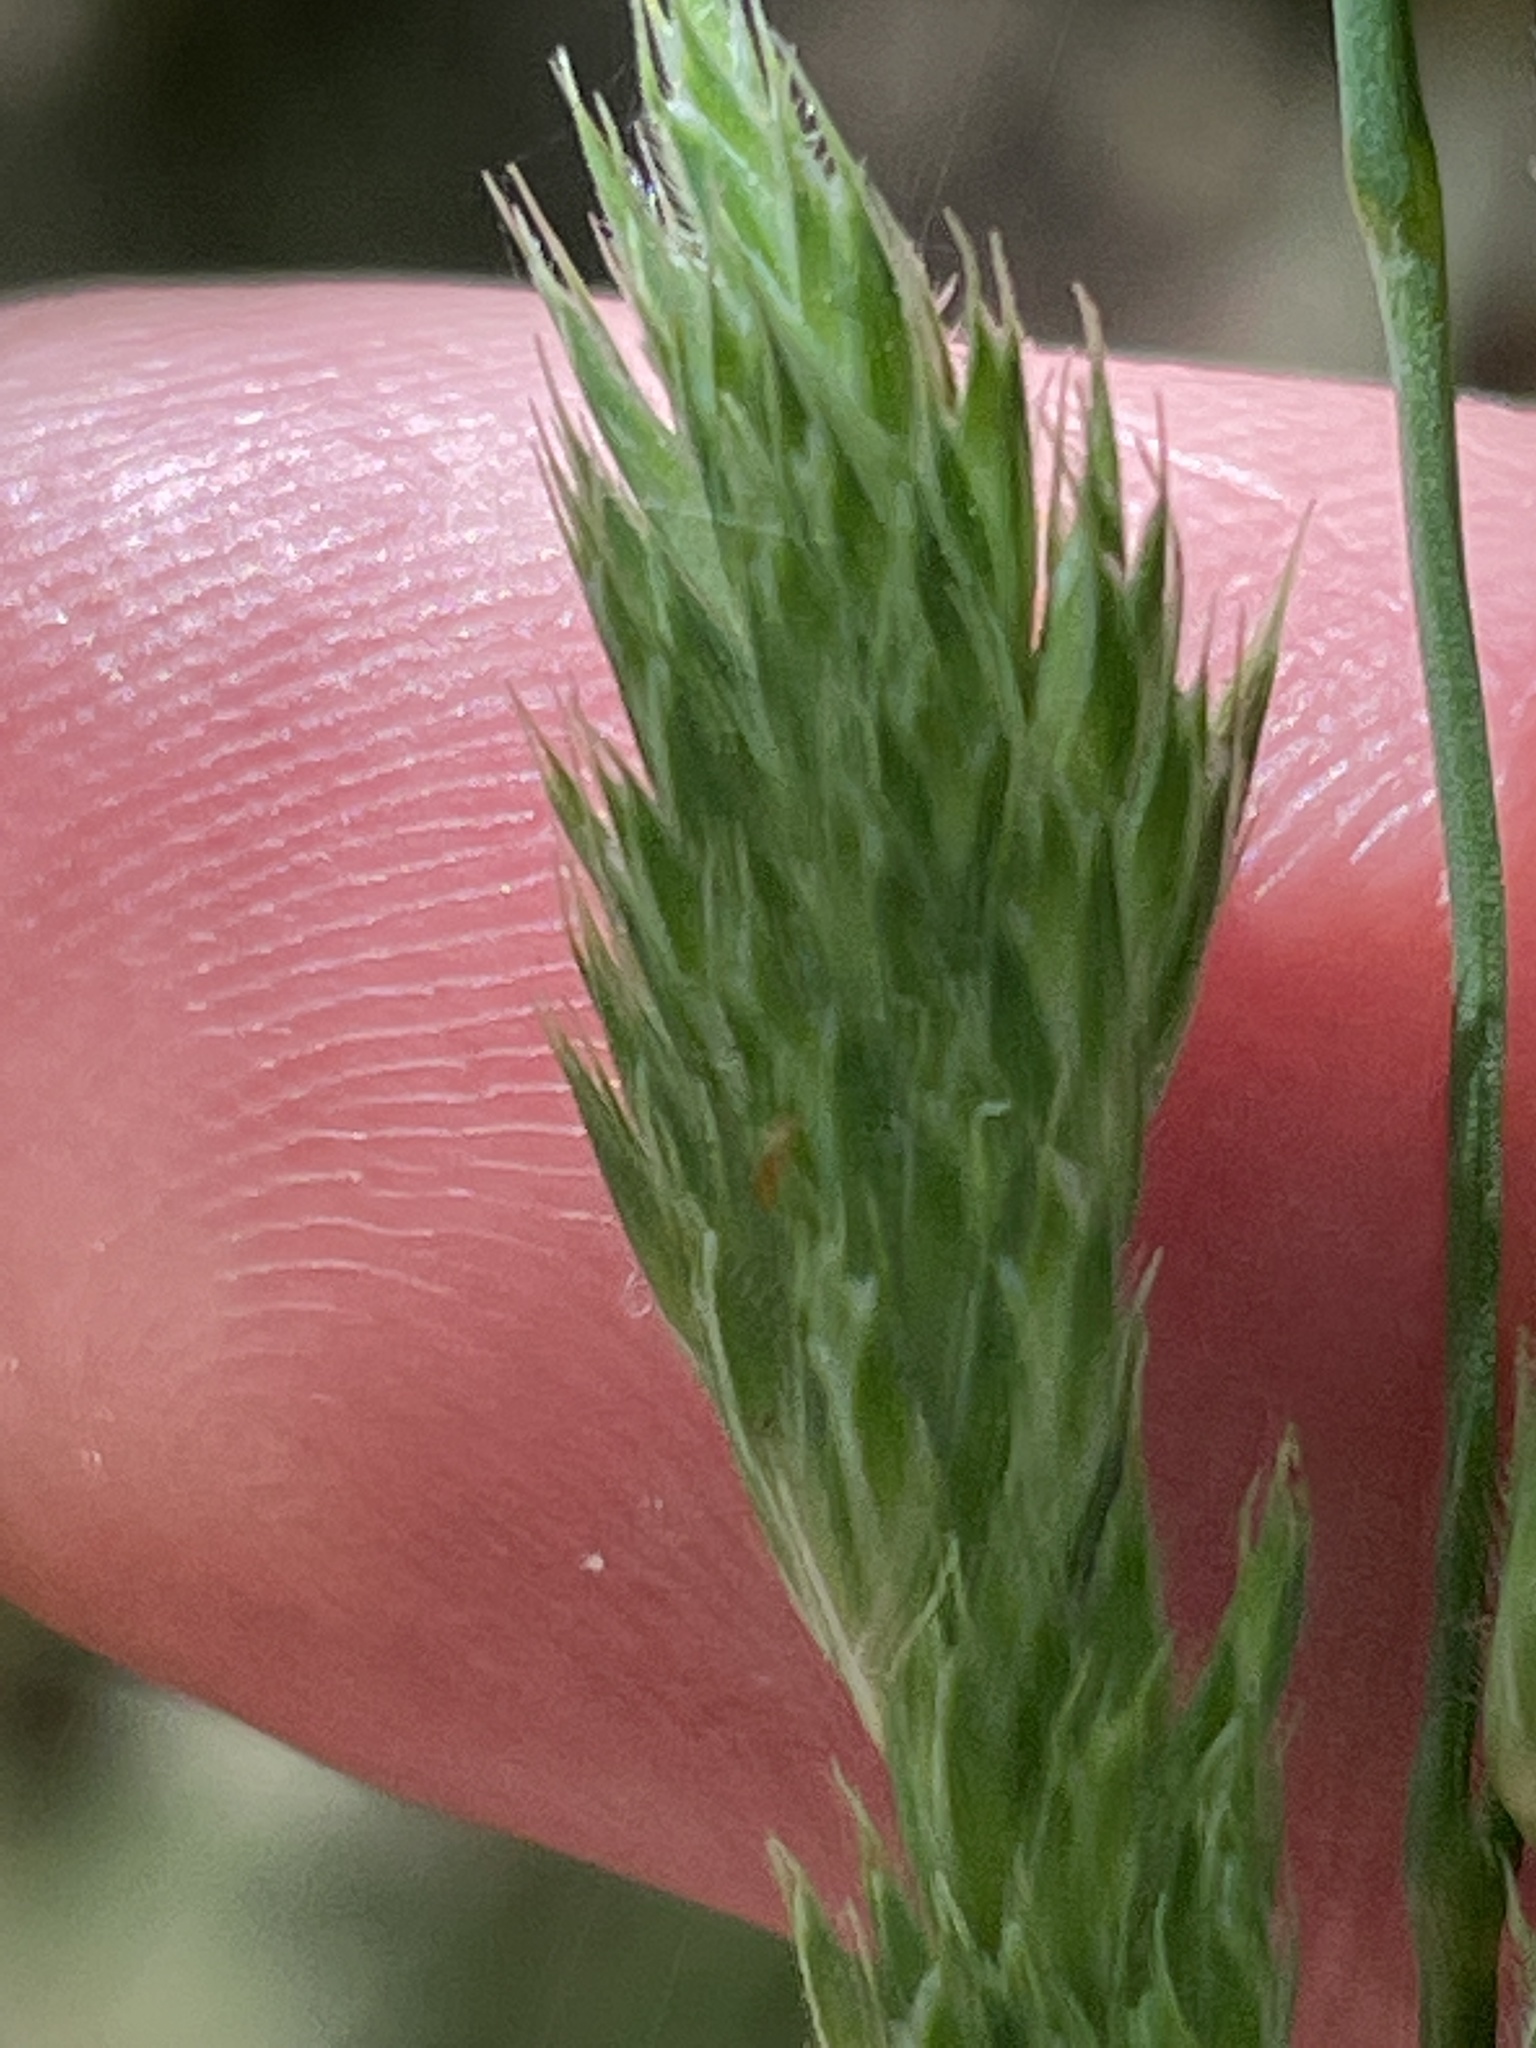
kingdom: Plantae
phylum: Tracheophyta
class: Liliopsida
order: Poales
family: Poaceae
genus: Dactylis
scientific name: Dactylis glomerata
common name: Orchardgrass
